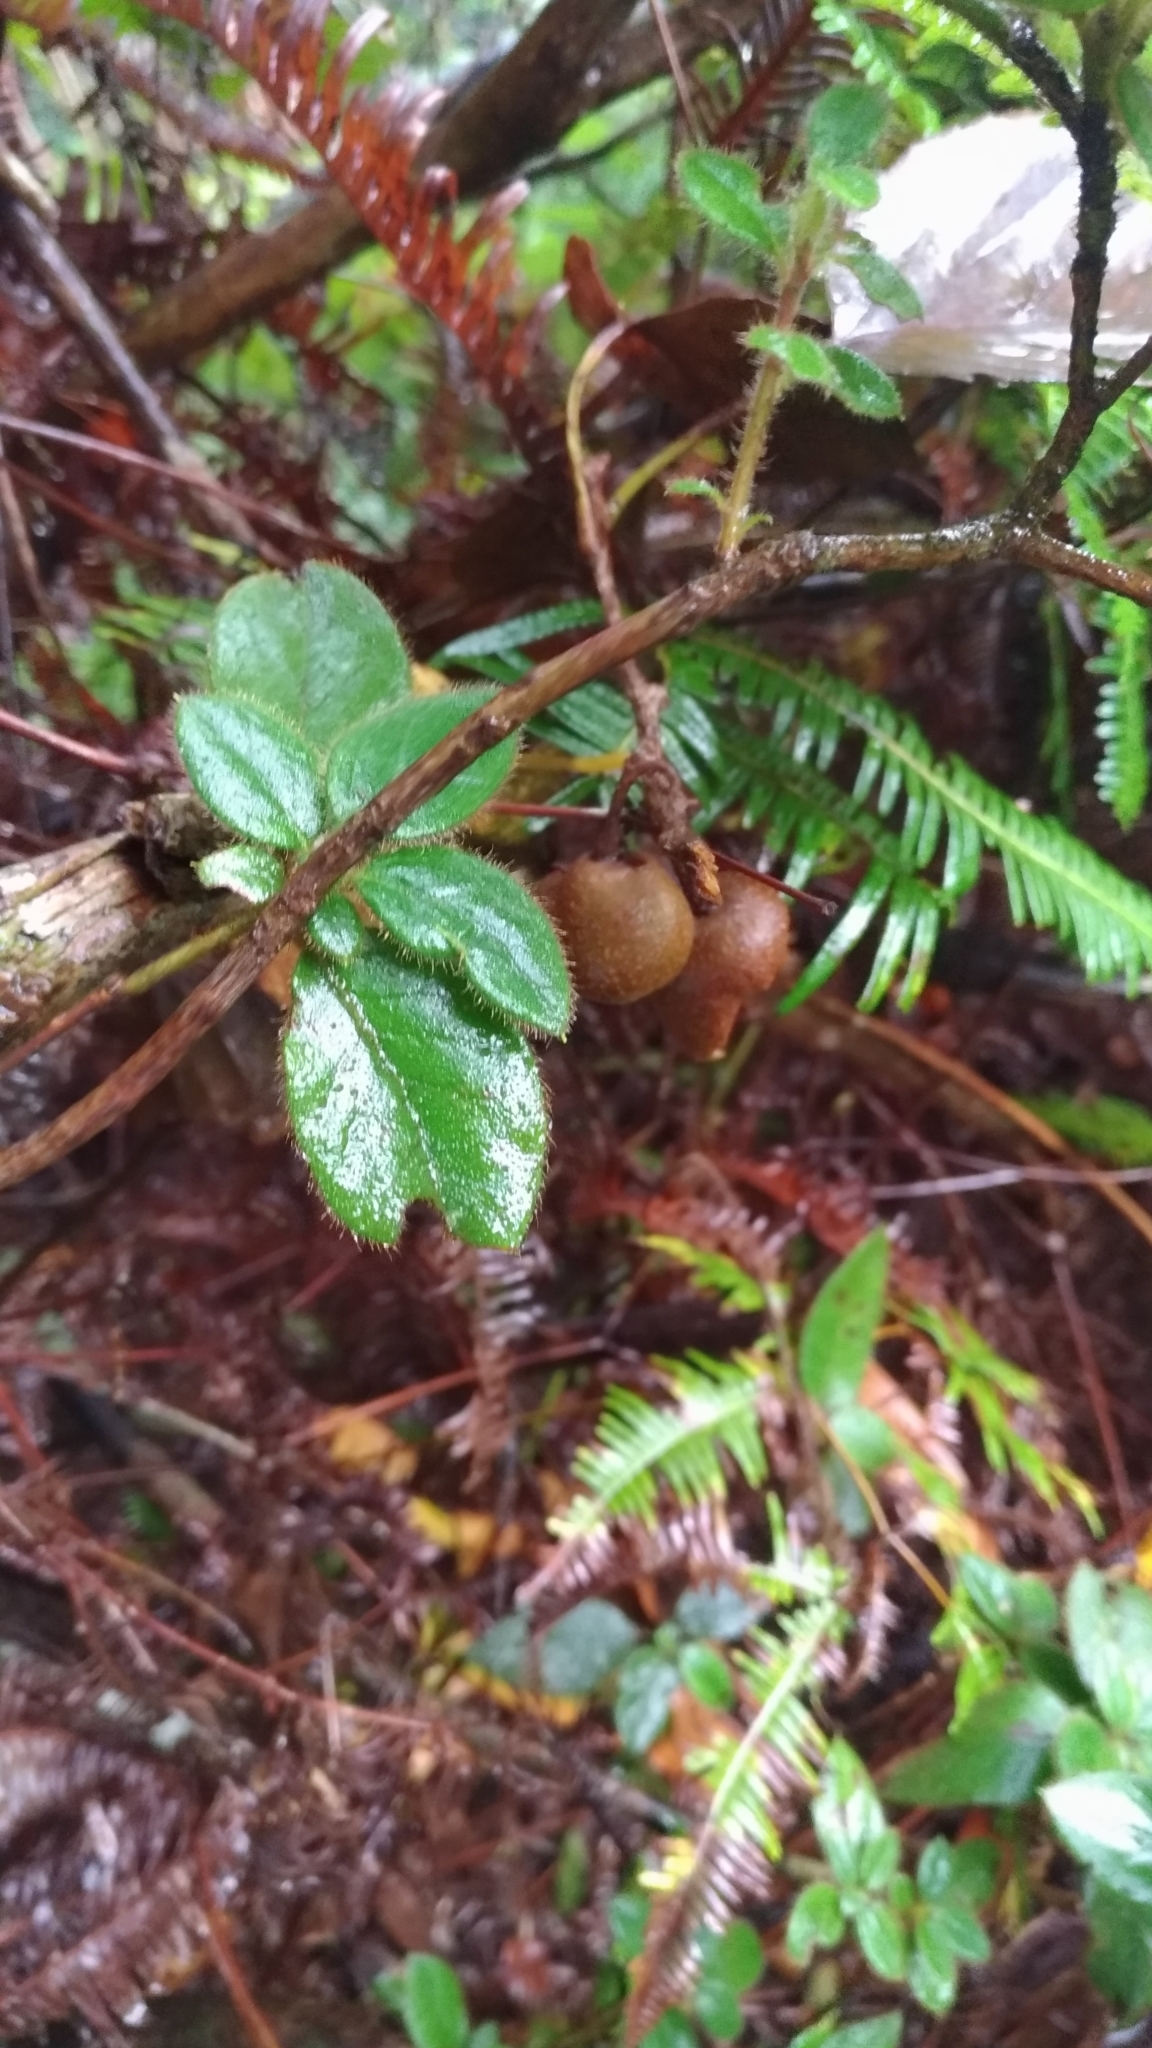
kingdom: Plantae
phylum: Tracheophyta
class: Magnoliopsida
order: Ericales
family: Actinidiaceae
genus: Actinidia
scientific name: Actinidia chinensis
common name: Kiwi
